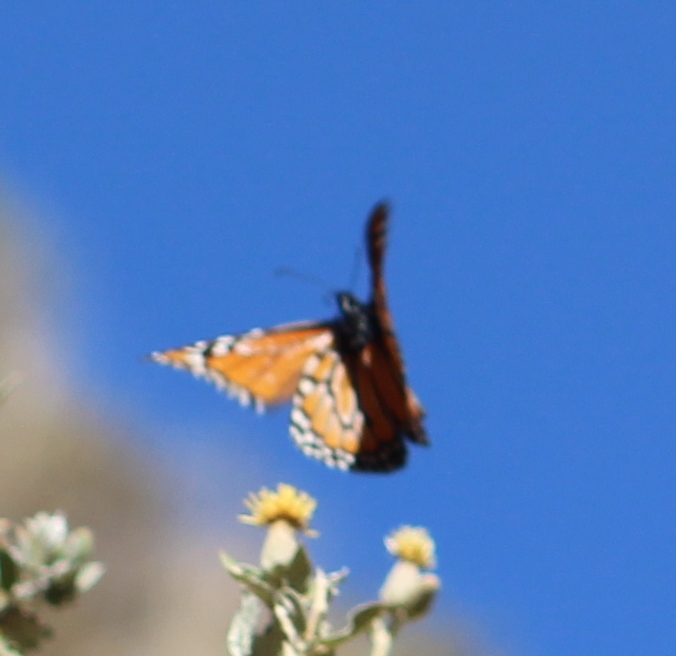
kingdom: Animalia
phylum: Arthropoda
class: Insecta
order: Lepidoptera
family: Nymphalidae
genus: Danaus
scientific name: Danaus erippus
